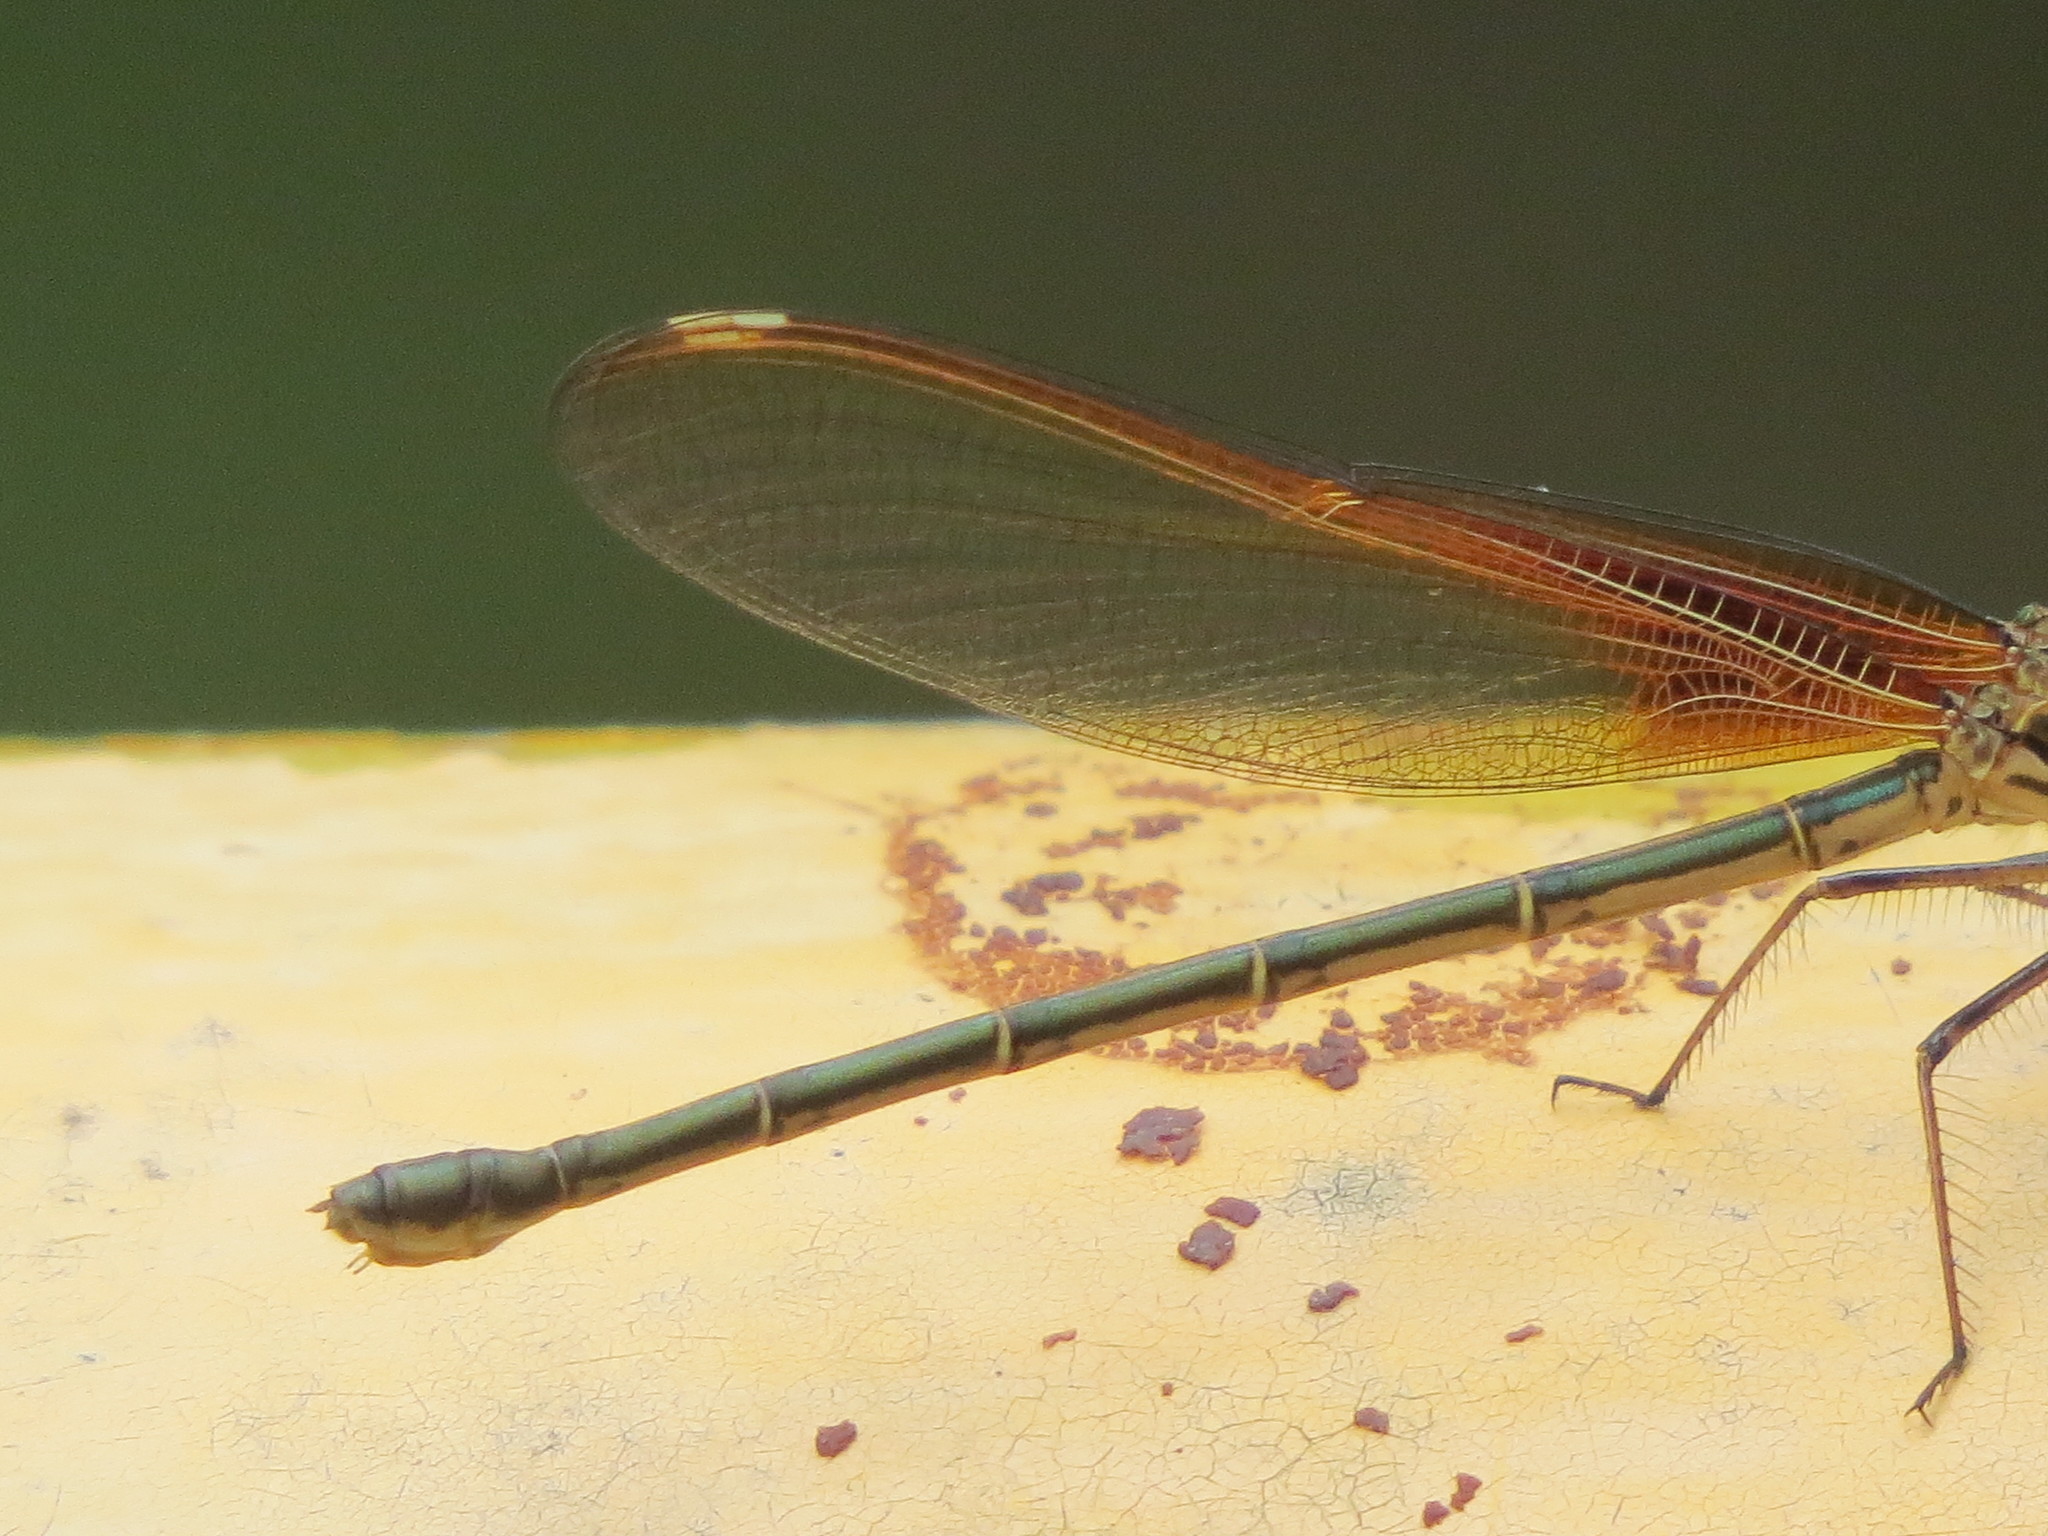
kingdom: Animalia
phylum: Arthropoda
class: Insecta
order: Odonata
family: Calopterygidae
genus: Hetaerina
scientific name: Hetaerina americana
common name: American rubyspot
